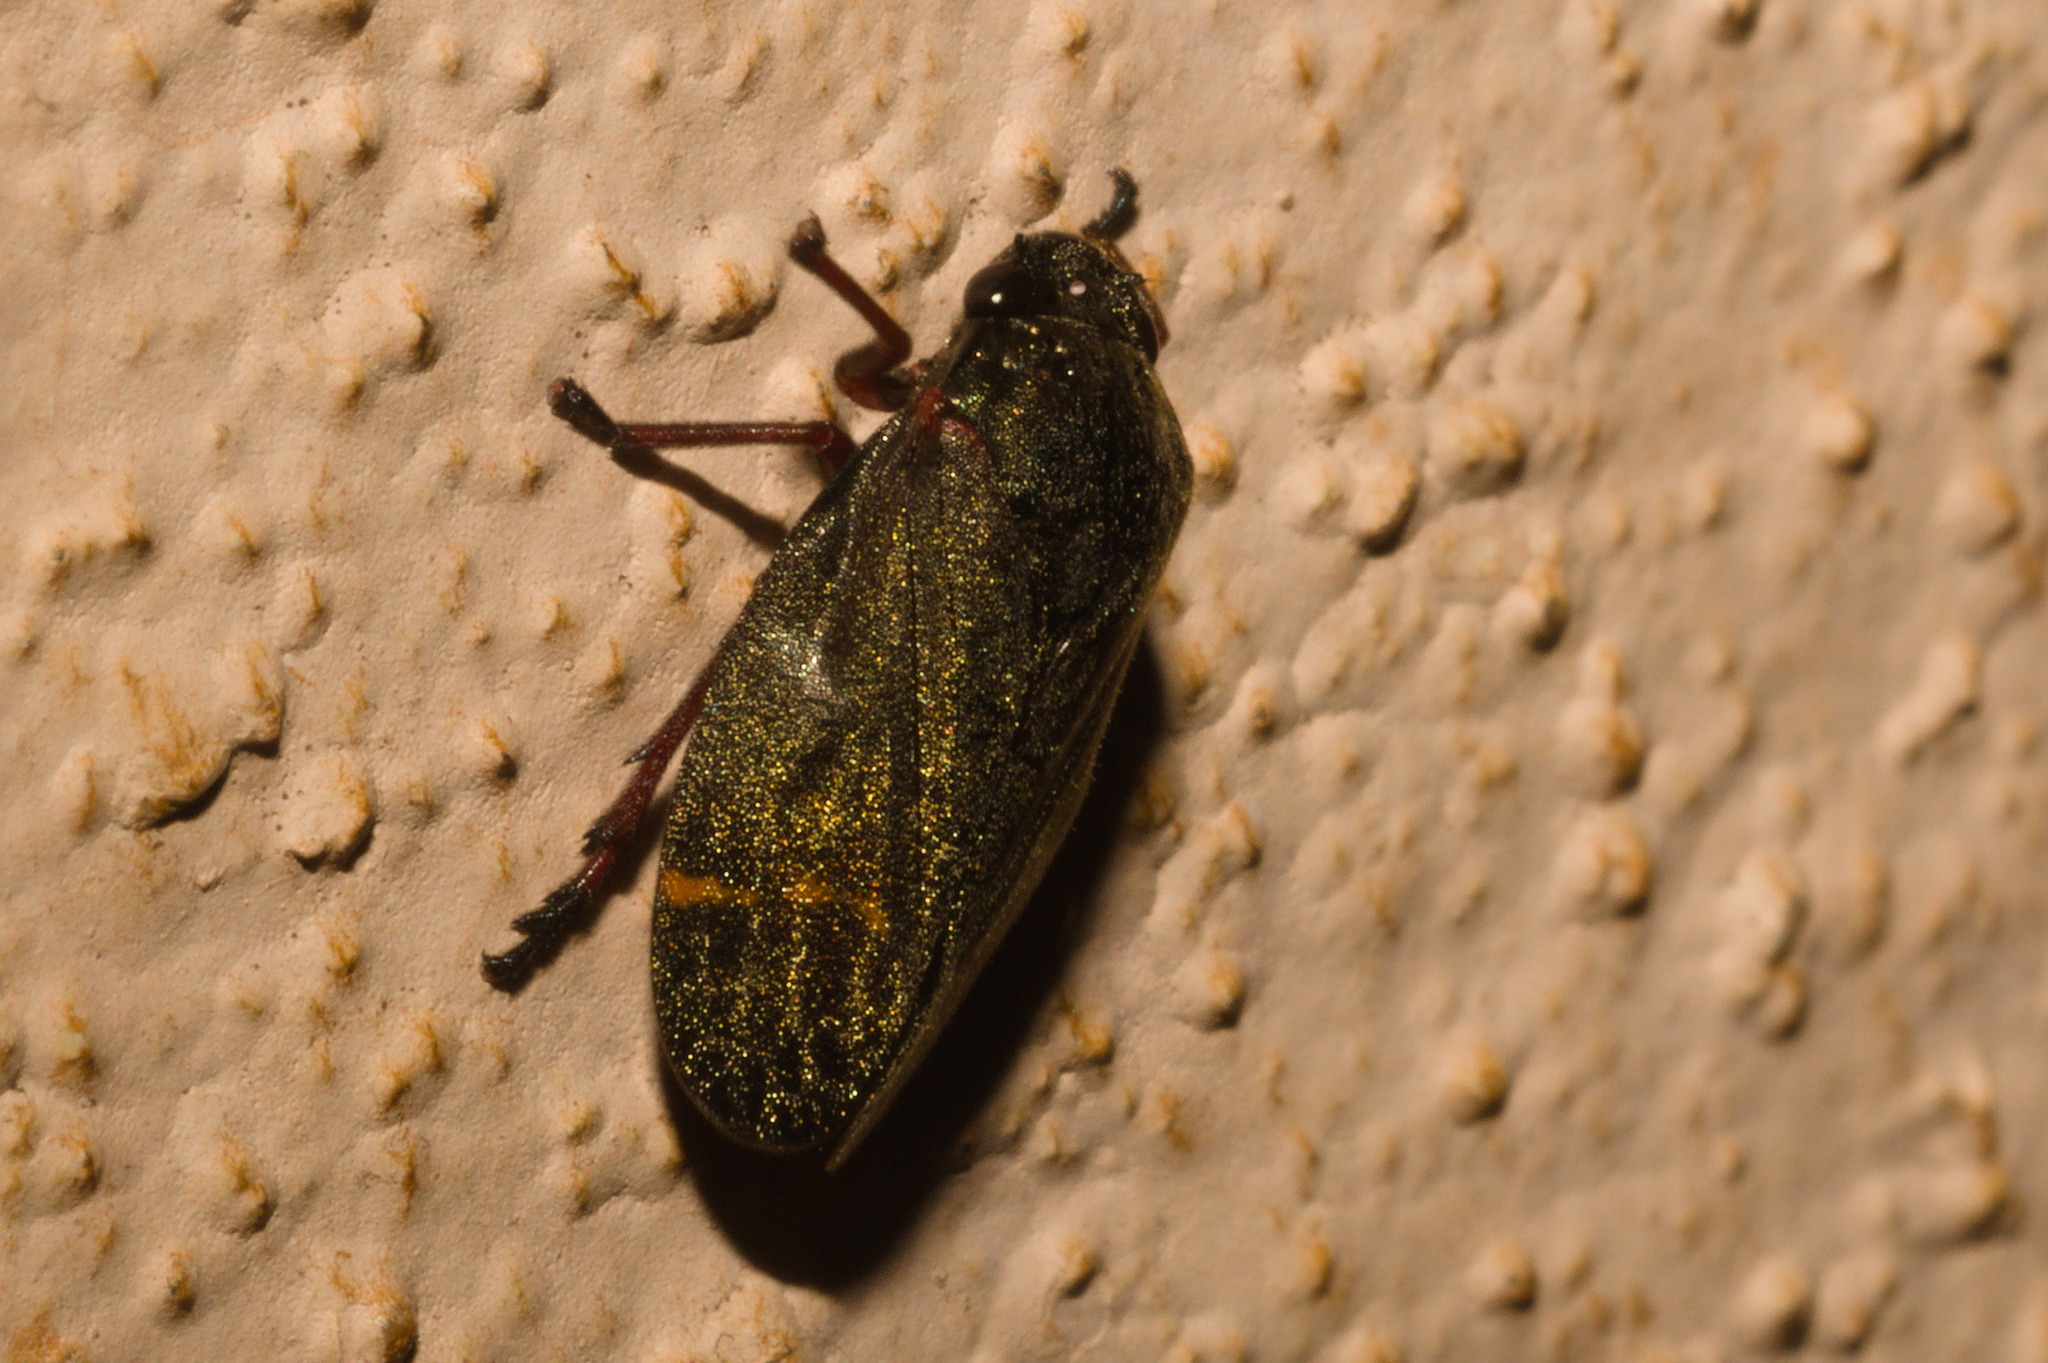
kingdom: Animalia
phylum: Arthropoda
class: Insecta
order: Hemiptera
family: Cercopidae
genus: Deois
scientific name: Deois schach
